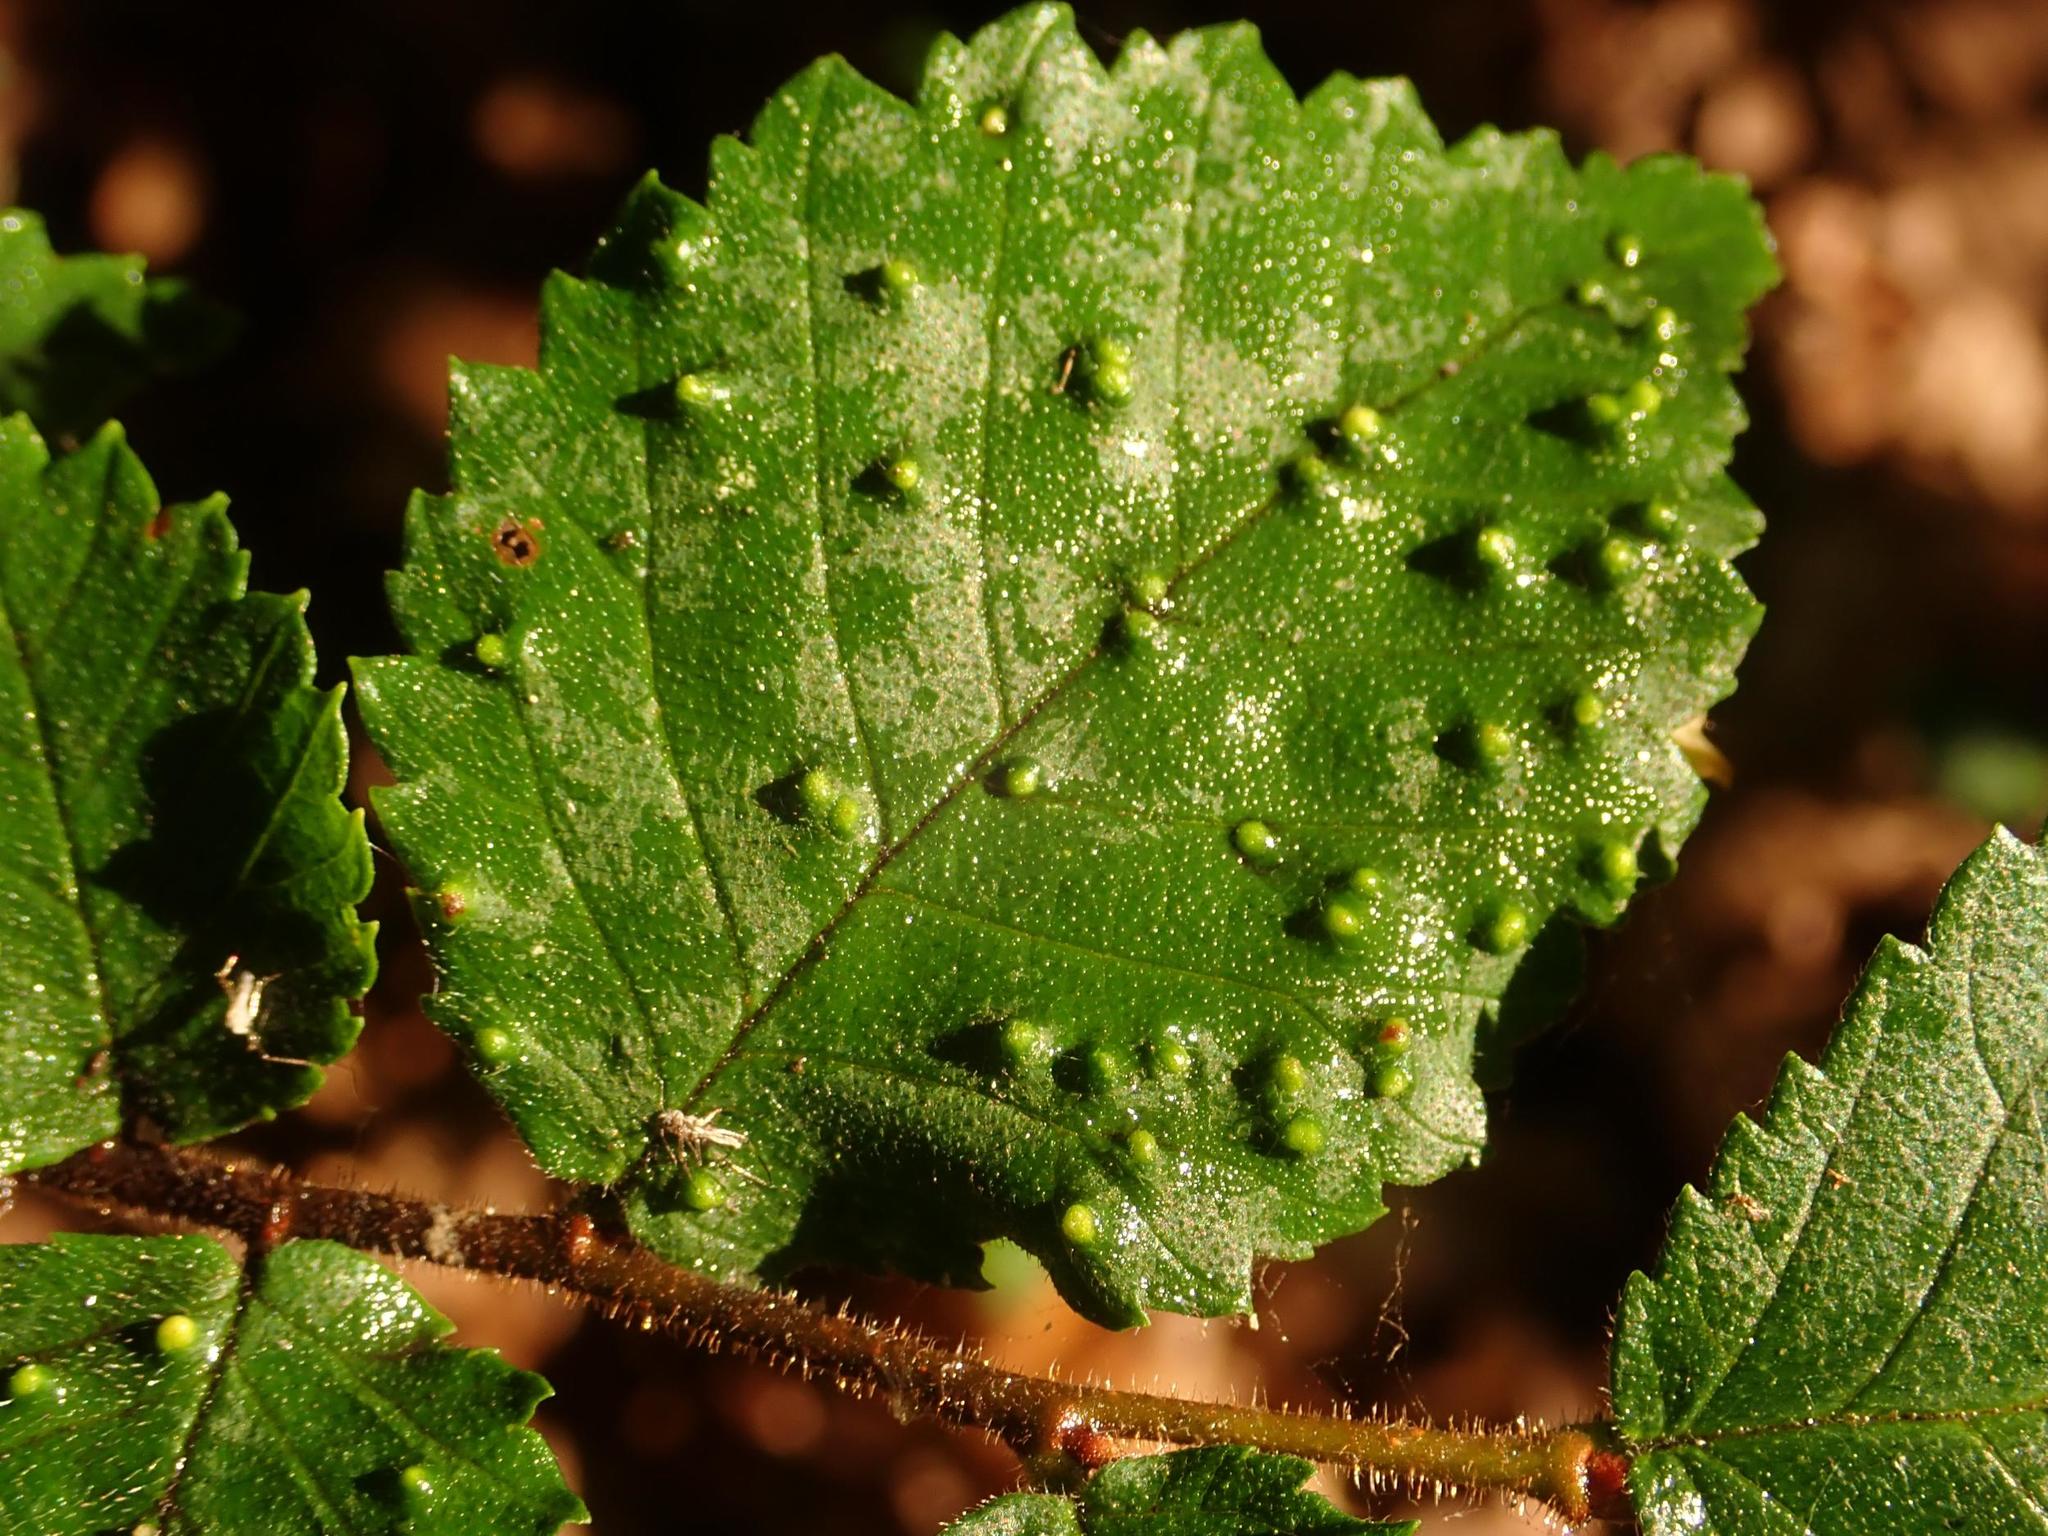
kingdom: Animalia
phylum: Arthropoda
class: Arachnida
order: Trombidiformes
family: Eriophyidae
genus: Aceria
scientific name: Aceria brevipunctata
